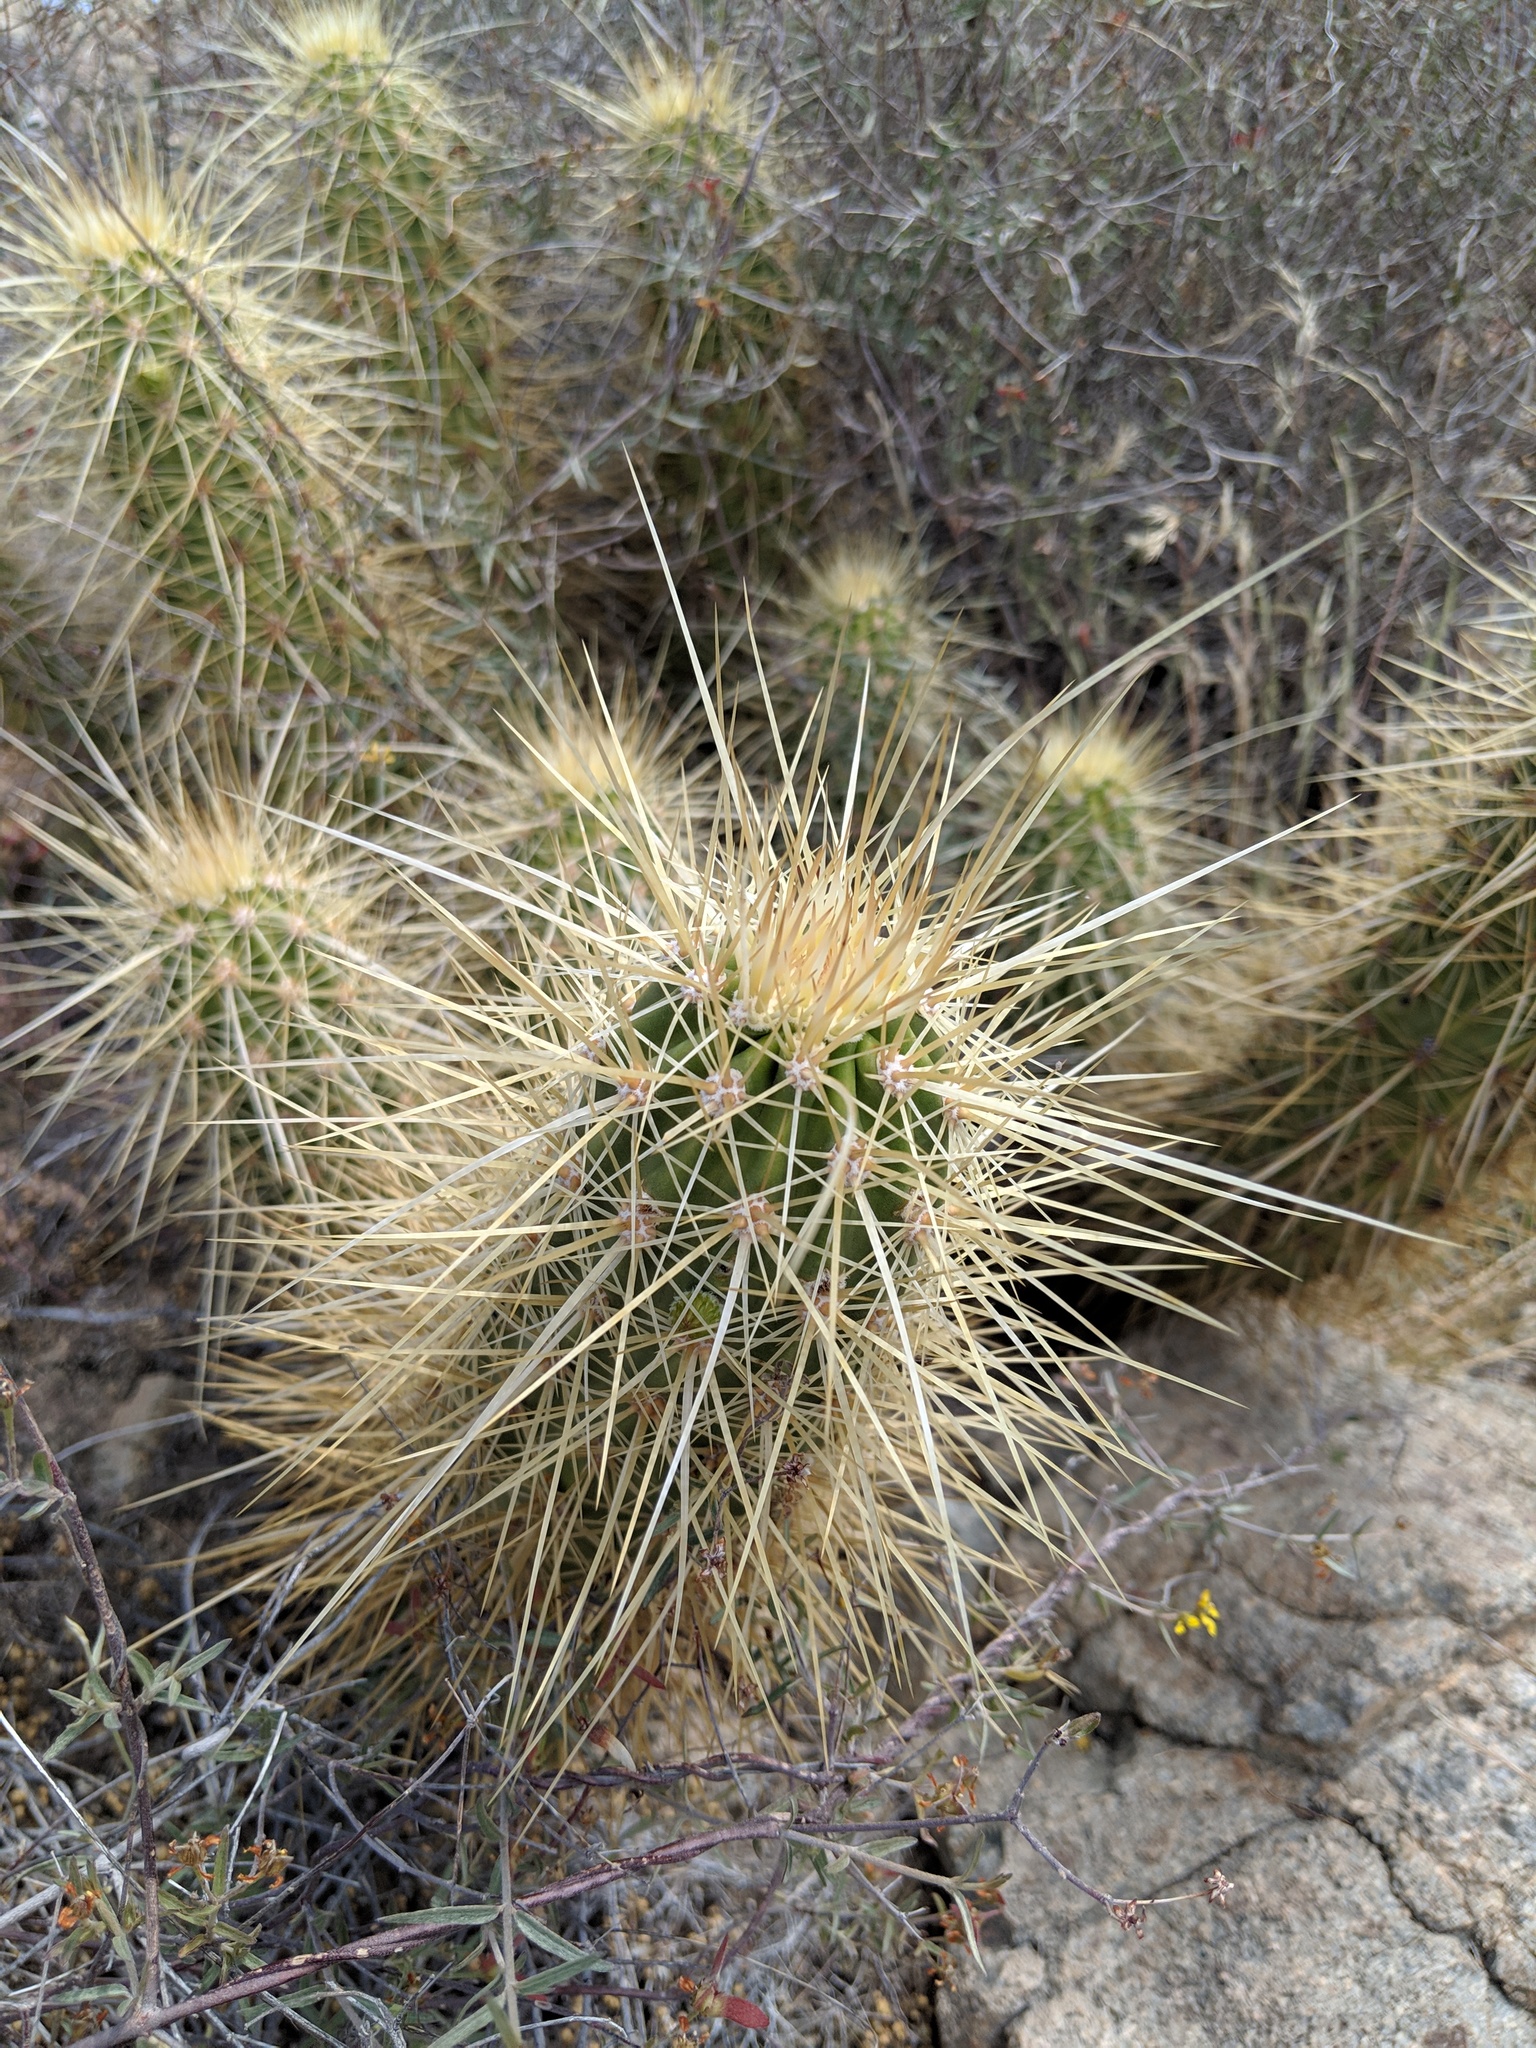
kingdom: Plantae
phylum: Tracheophyta
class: Magnoliopsida
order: Caryophyllales
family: Cactaceae
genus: Echinocereus
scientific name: Echinocereus nicholii
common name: Nichol's hedgehog cactus
